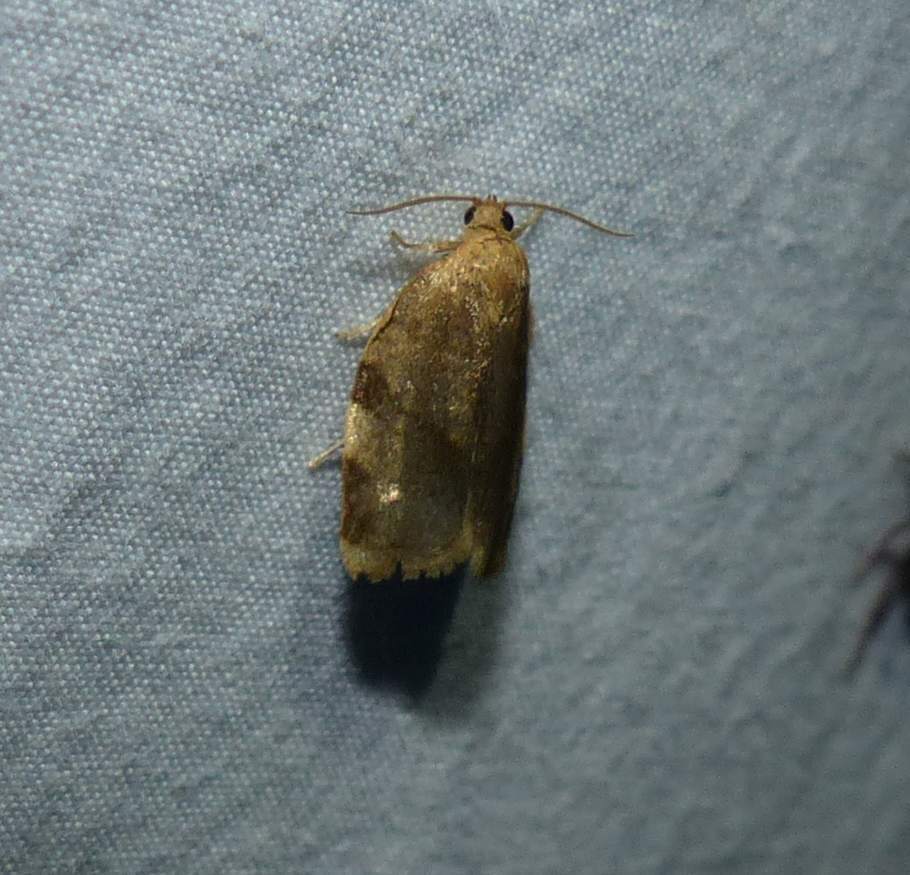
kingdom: Animalia
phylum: Arthropoda
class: Insecta
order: Lepidoptera
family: Tortricidae
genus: Choristoneura
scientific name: Choristoneura fractivittana
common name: Broken-banded leafroller moth
